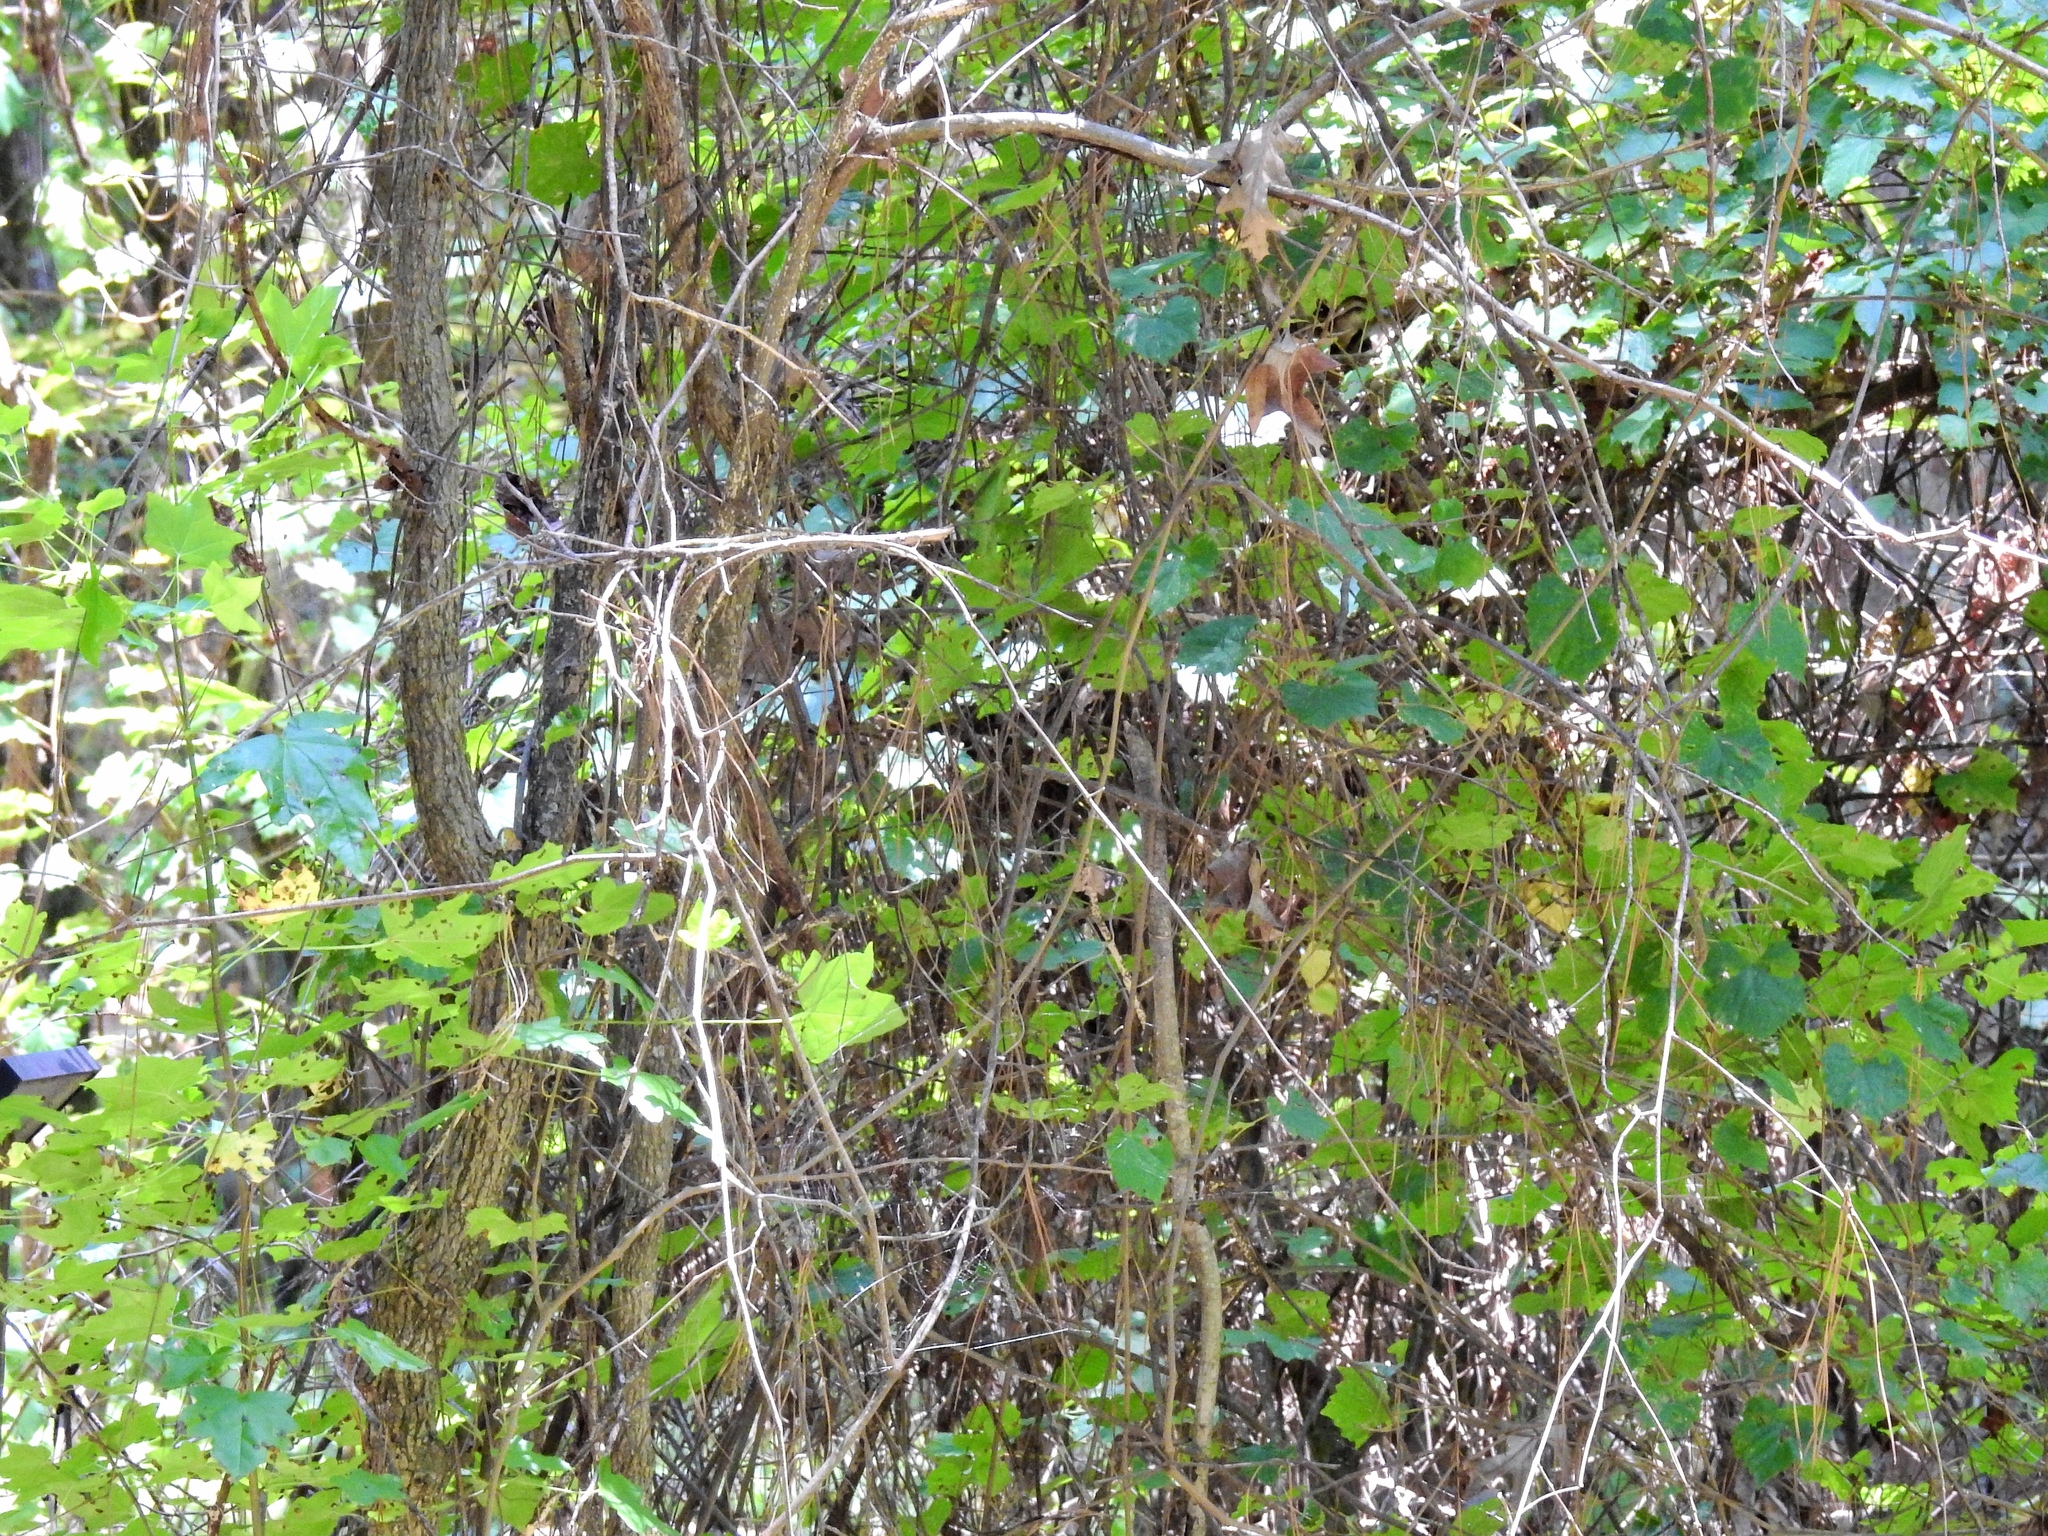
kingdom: Plantae
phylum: Tracheophyta
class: Magnoliopsida
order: Vitales
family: Vitaceae
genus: Vitis
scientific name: Vitis rotundifolia
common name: Muscadine grape
